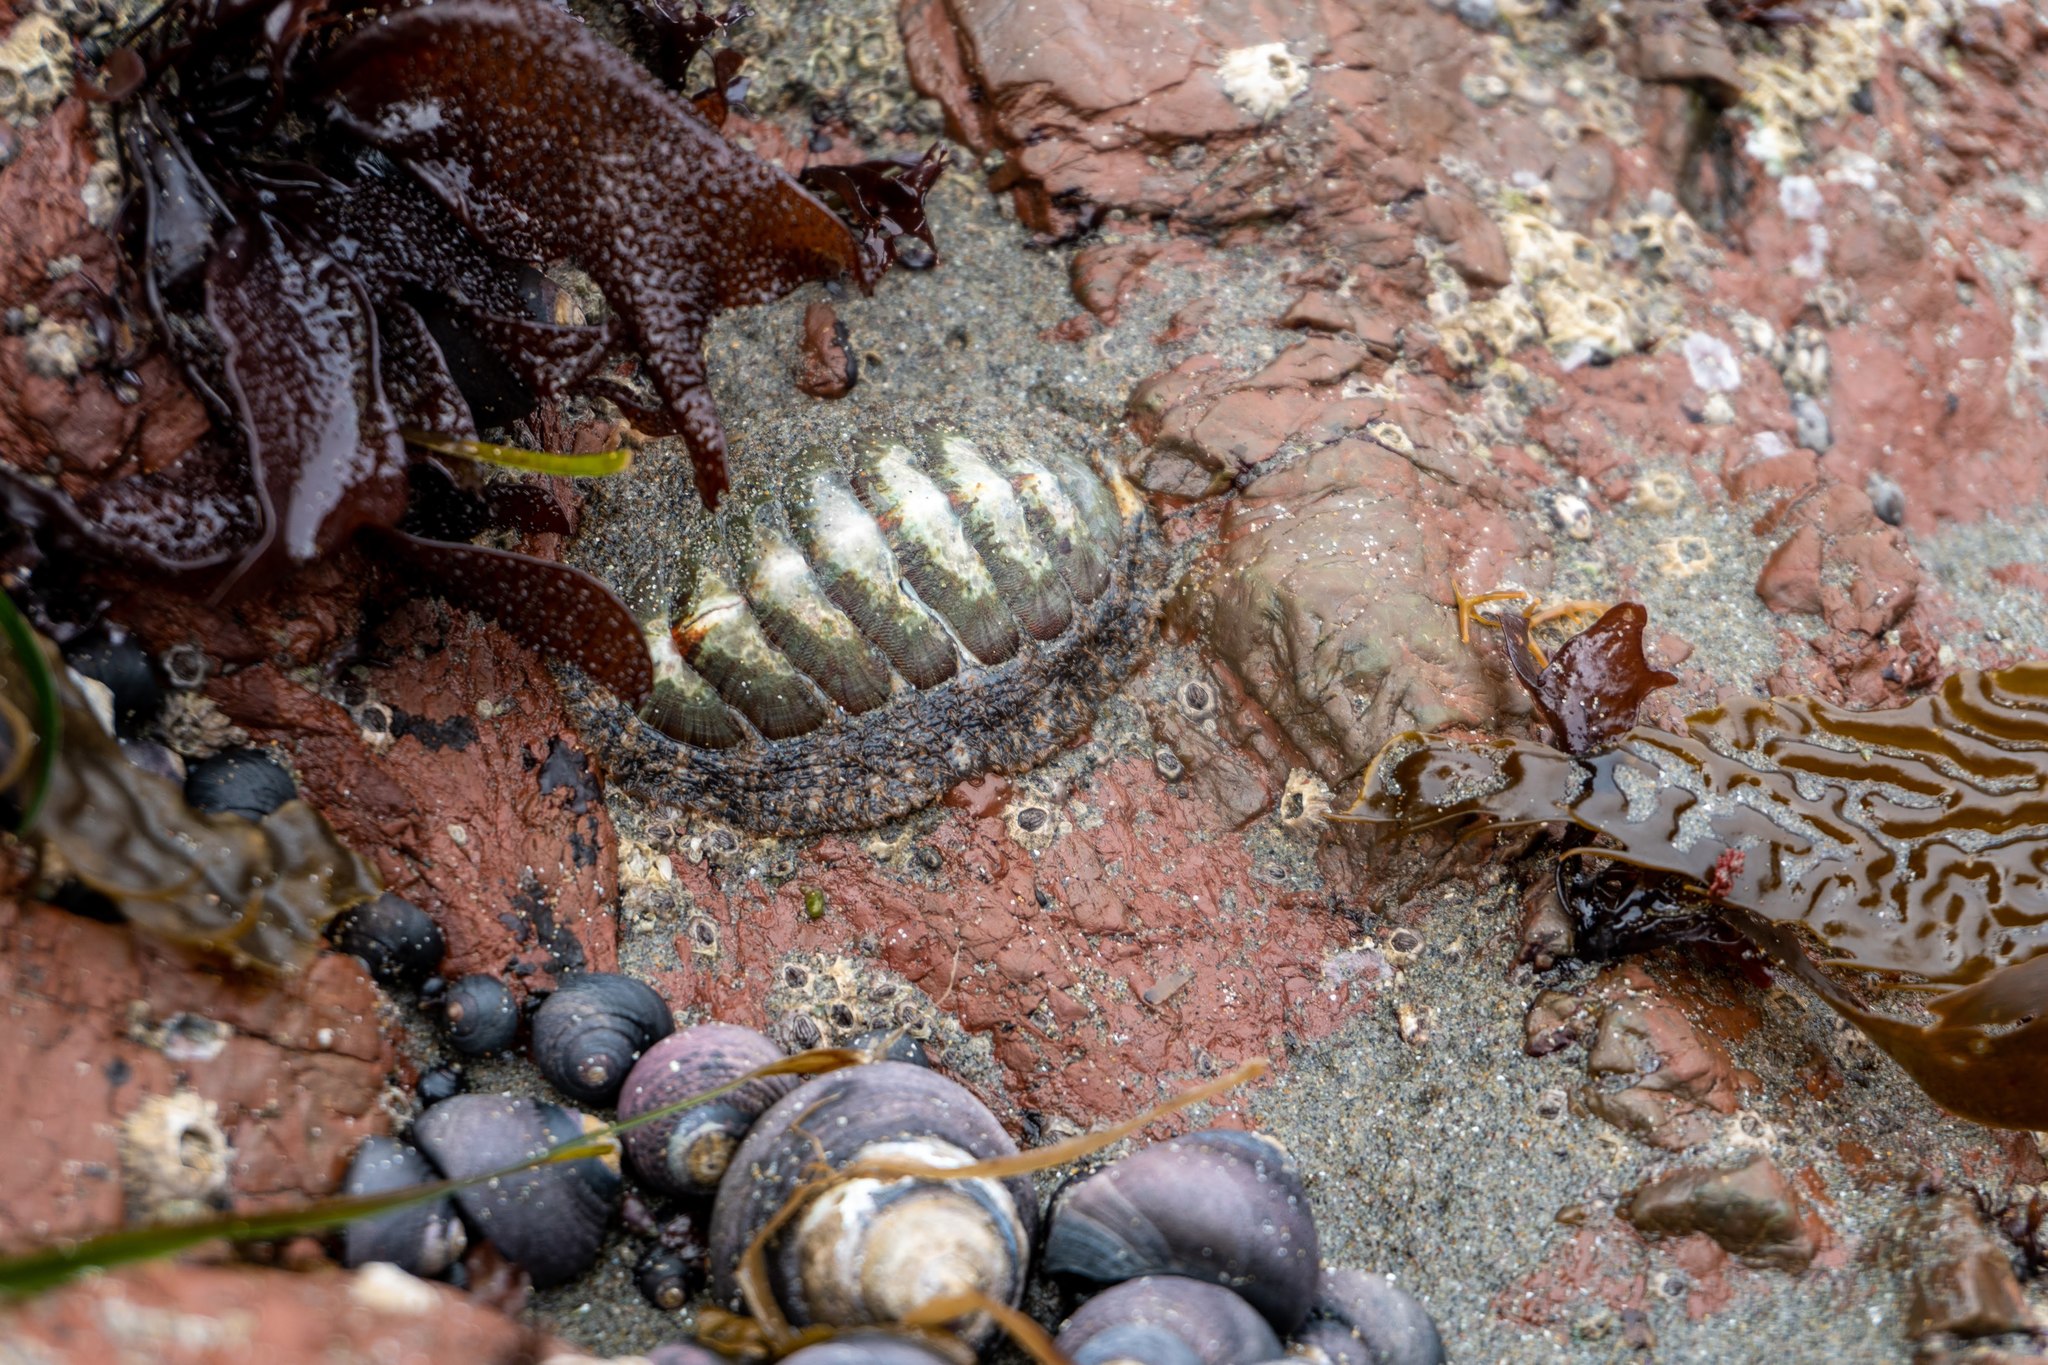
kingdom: Animalia
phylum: Mollusca
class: Gastropoda
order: Trochida
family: Tegulidae
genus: Tegula
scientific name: Tegula funebralis
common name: Black tegula
